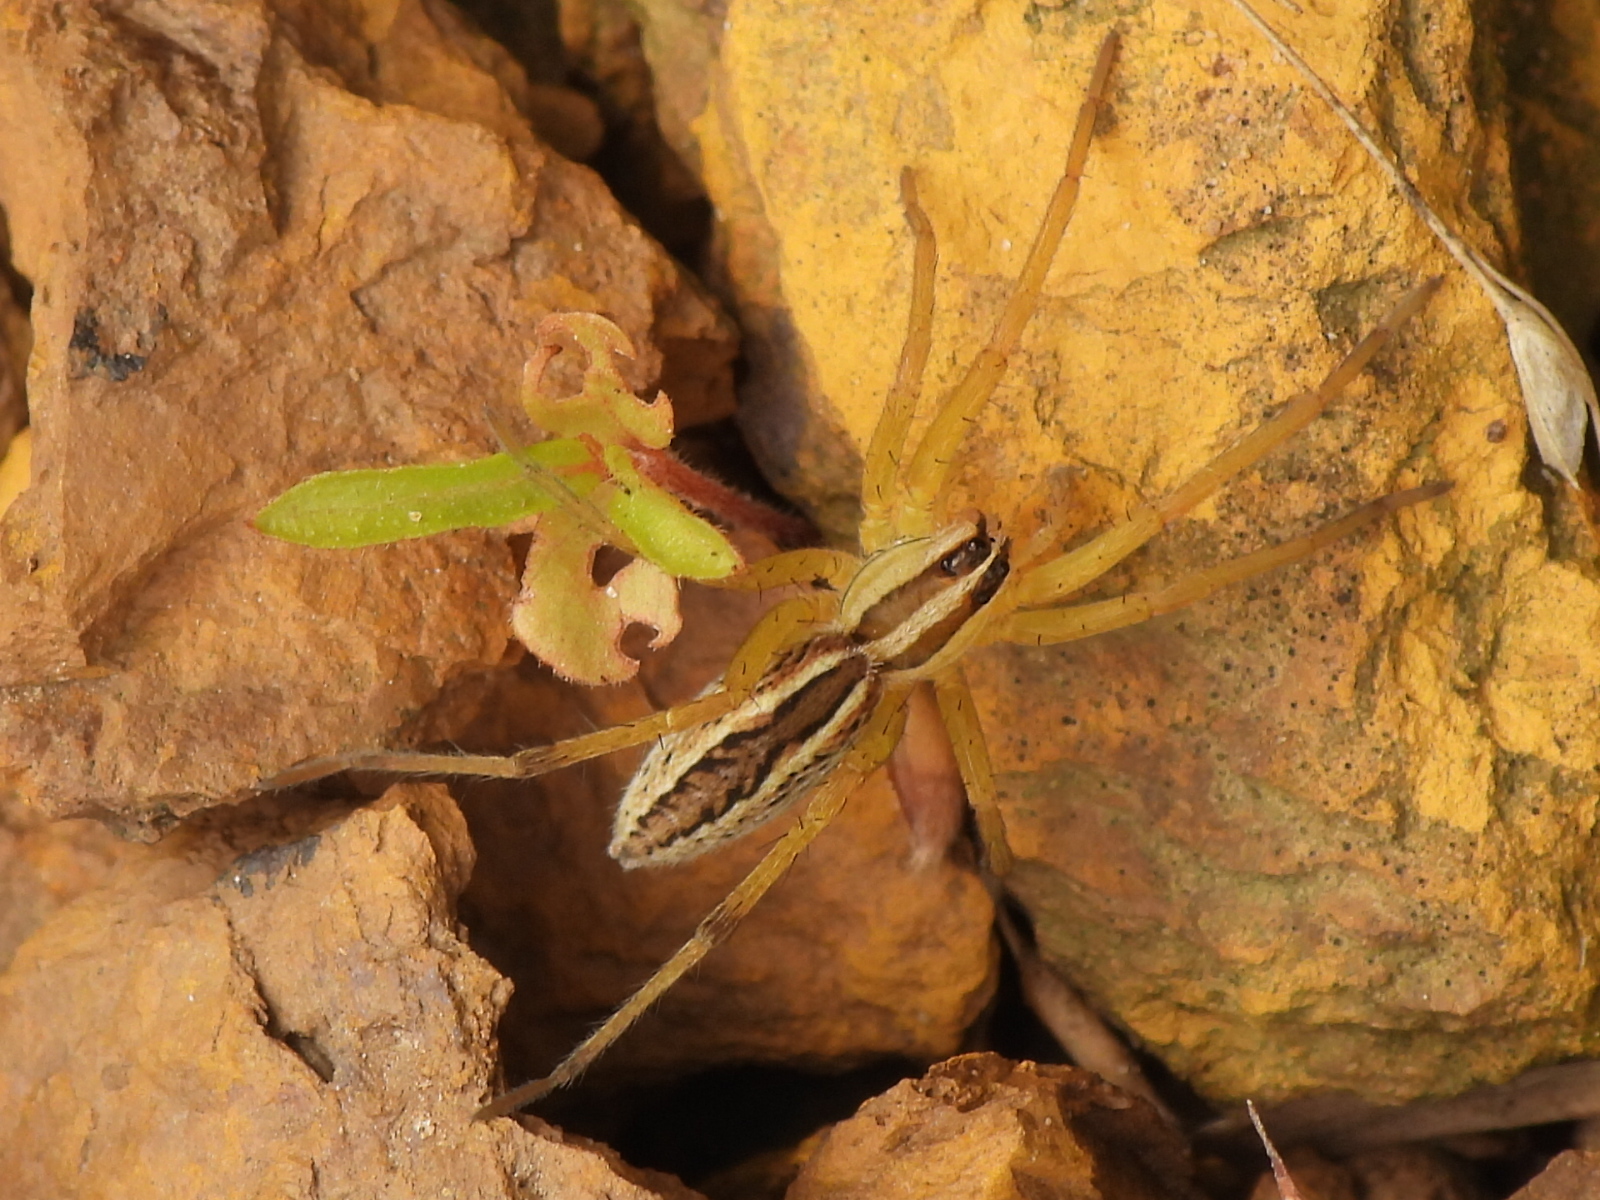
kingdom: Animalia
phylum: Arthropoda
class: Arachnida
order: Araneae
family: Lycosidae
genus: Rabidosa
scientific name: Rabidosa rabida
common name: Rabid wolf spider
